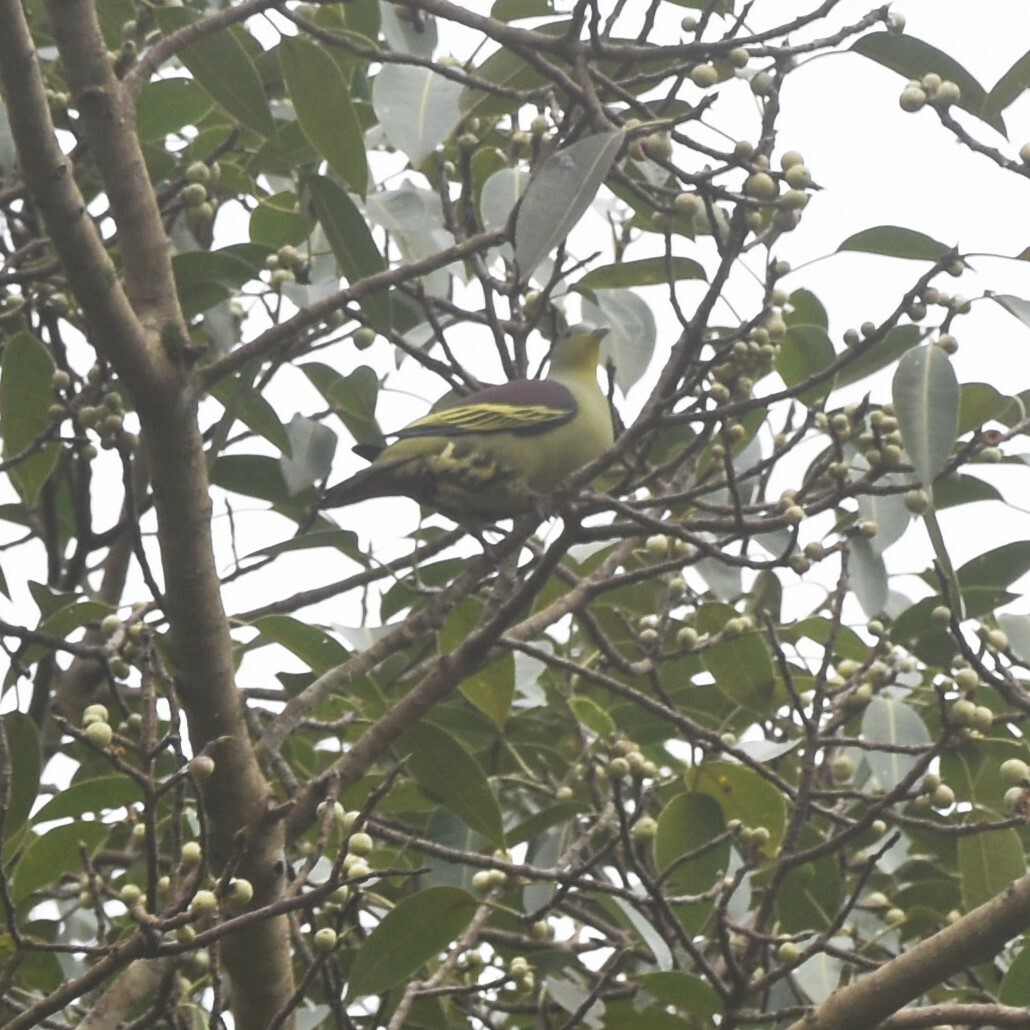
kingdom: Animalia
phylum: Chordata
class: Aves
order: Columbiformes
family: Columbidae
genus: Treron
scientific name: Treron affinis
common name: Grey-fronted green pigeon
